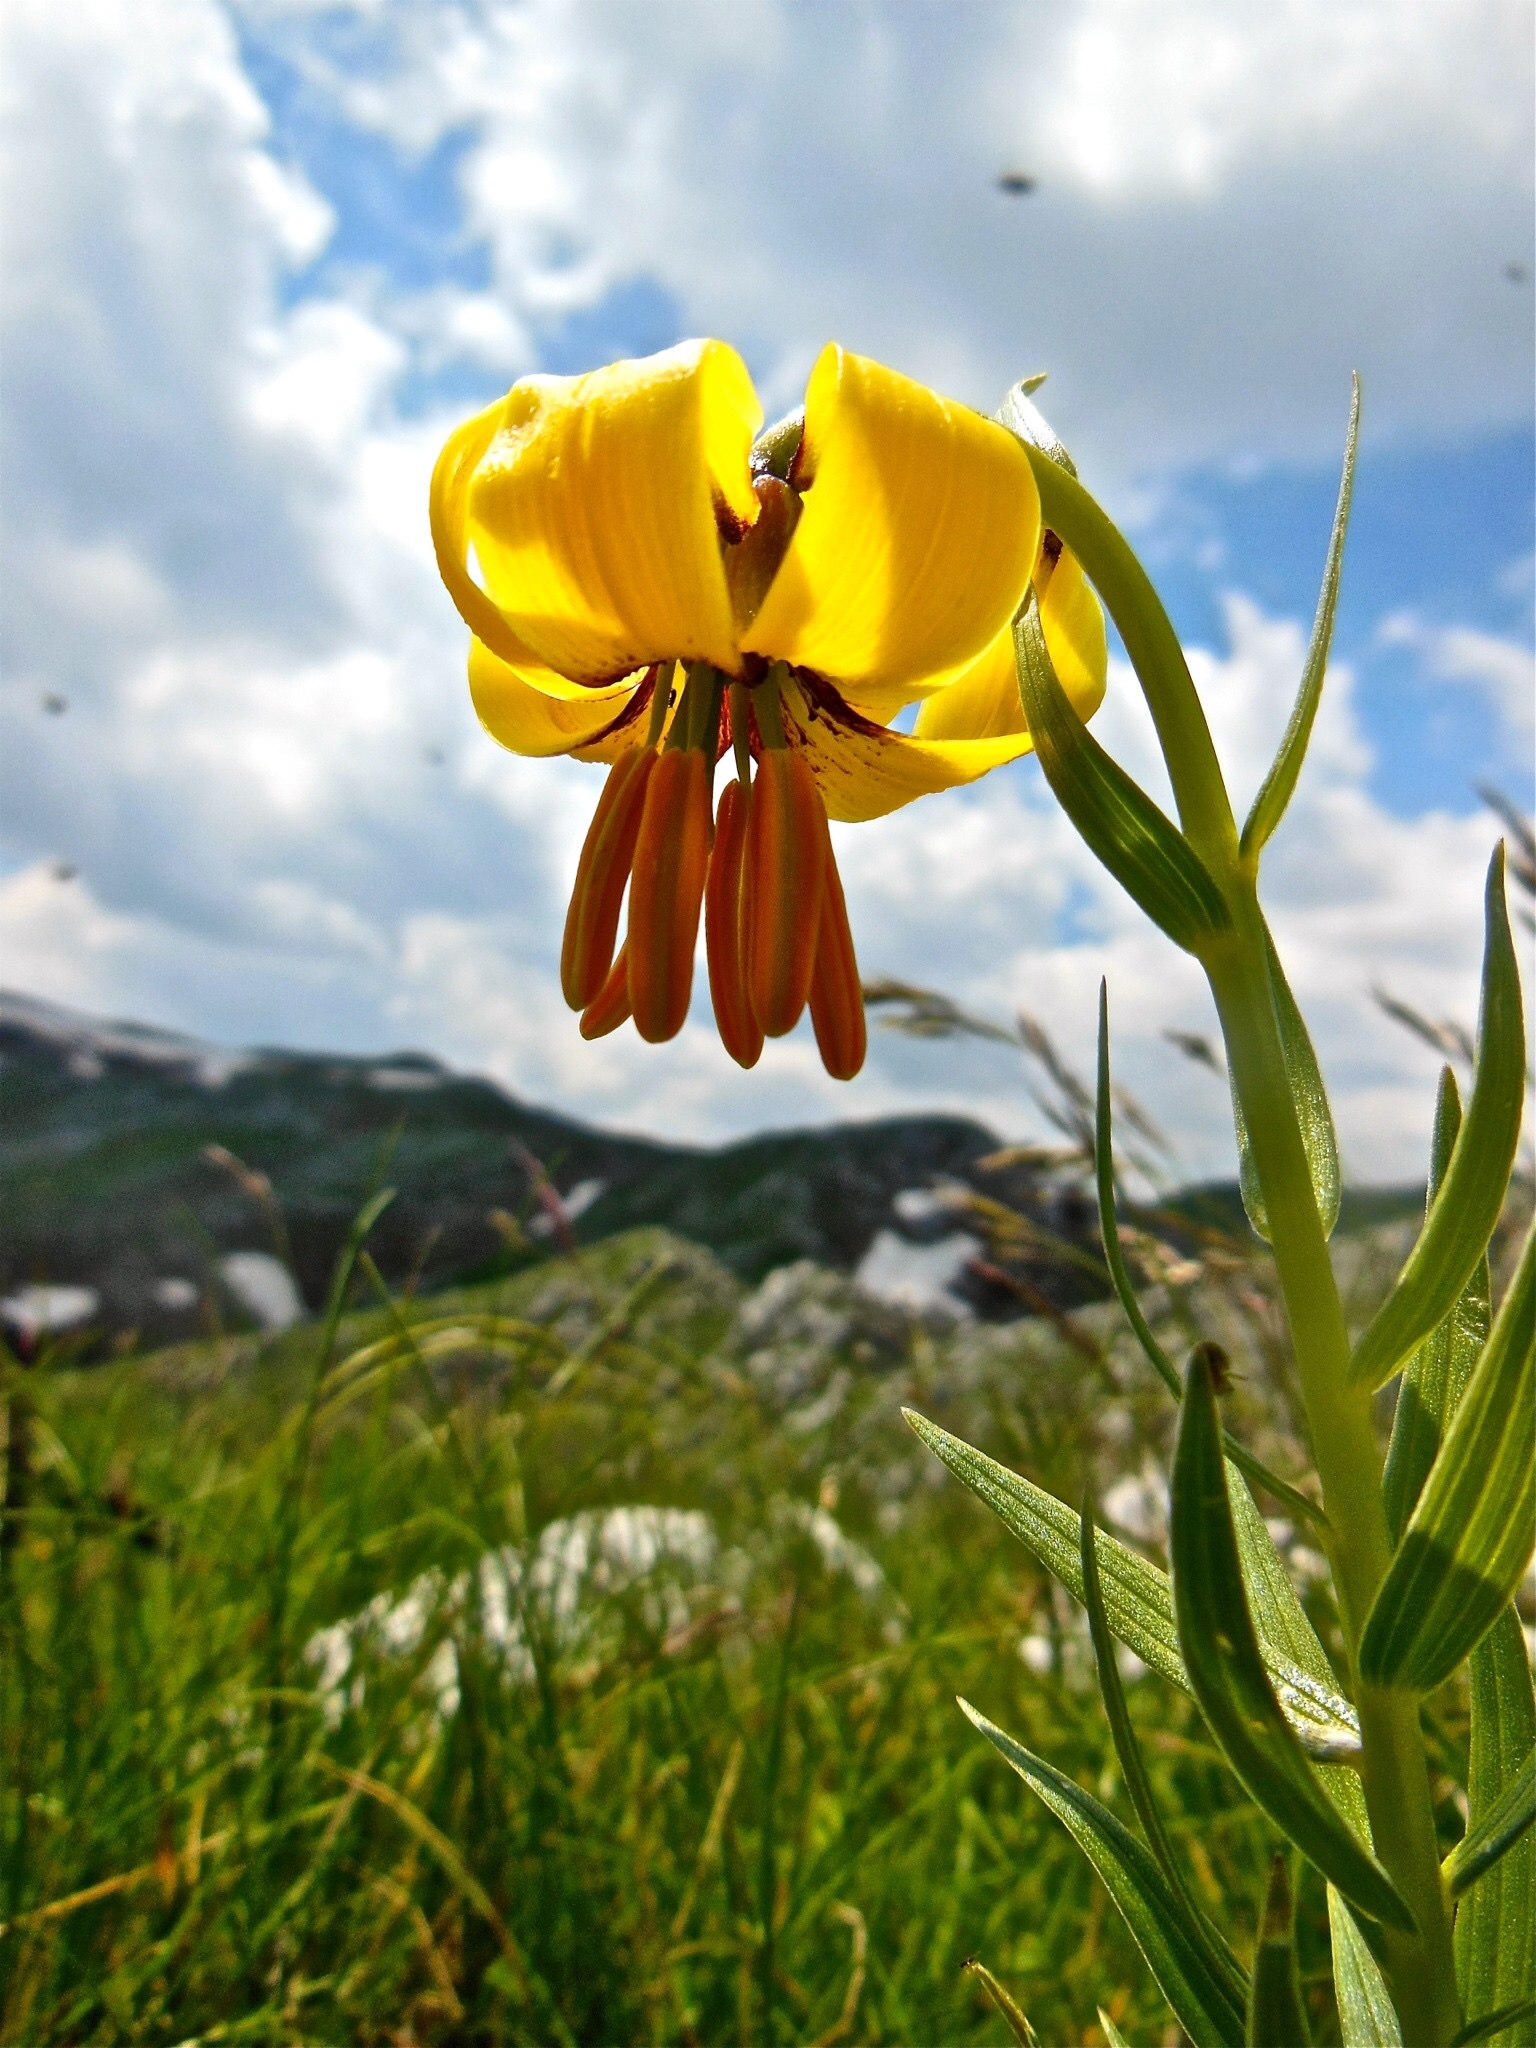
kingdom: Plantae
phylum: Tracheophyta
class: Liliopsida
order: Liliales
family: Liliaceae
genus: Lilium
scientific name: Lilium albanicum
